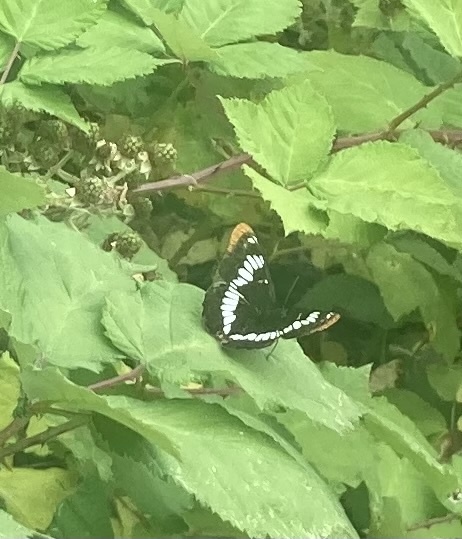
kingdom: Animalia
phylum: Arthropoda
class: Insecta
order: Lepidoptera
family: Nymphalidae
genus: Limenitis
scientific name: Limenitis lorquini
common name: Lorquin's admiral
